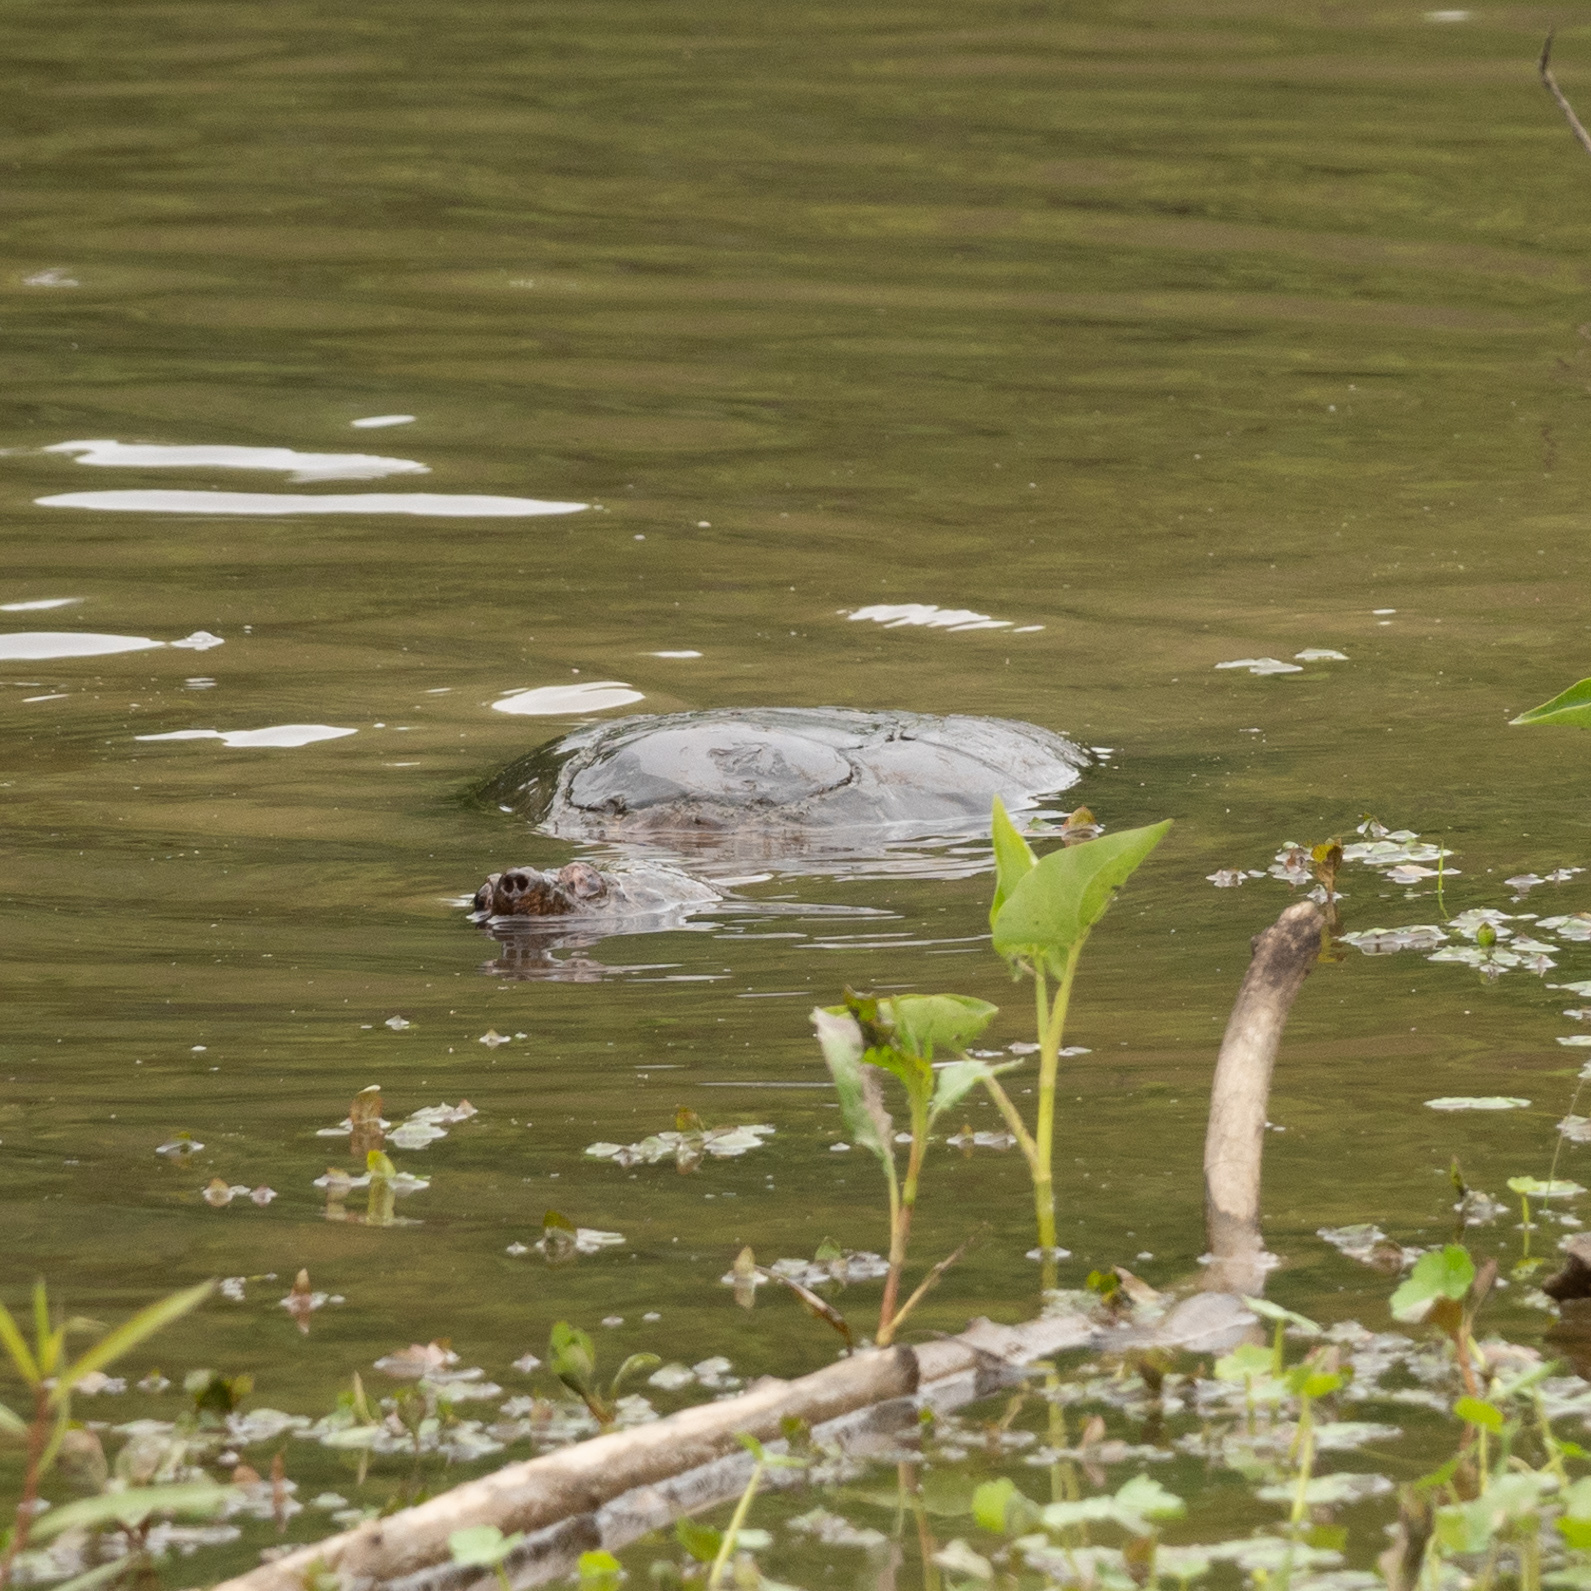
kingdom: Animalia
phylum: Chordata
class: Testudines
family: Chelydridae
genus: Chelydra
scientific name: Chelydra serpentina
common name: Common snapping turtle
